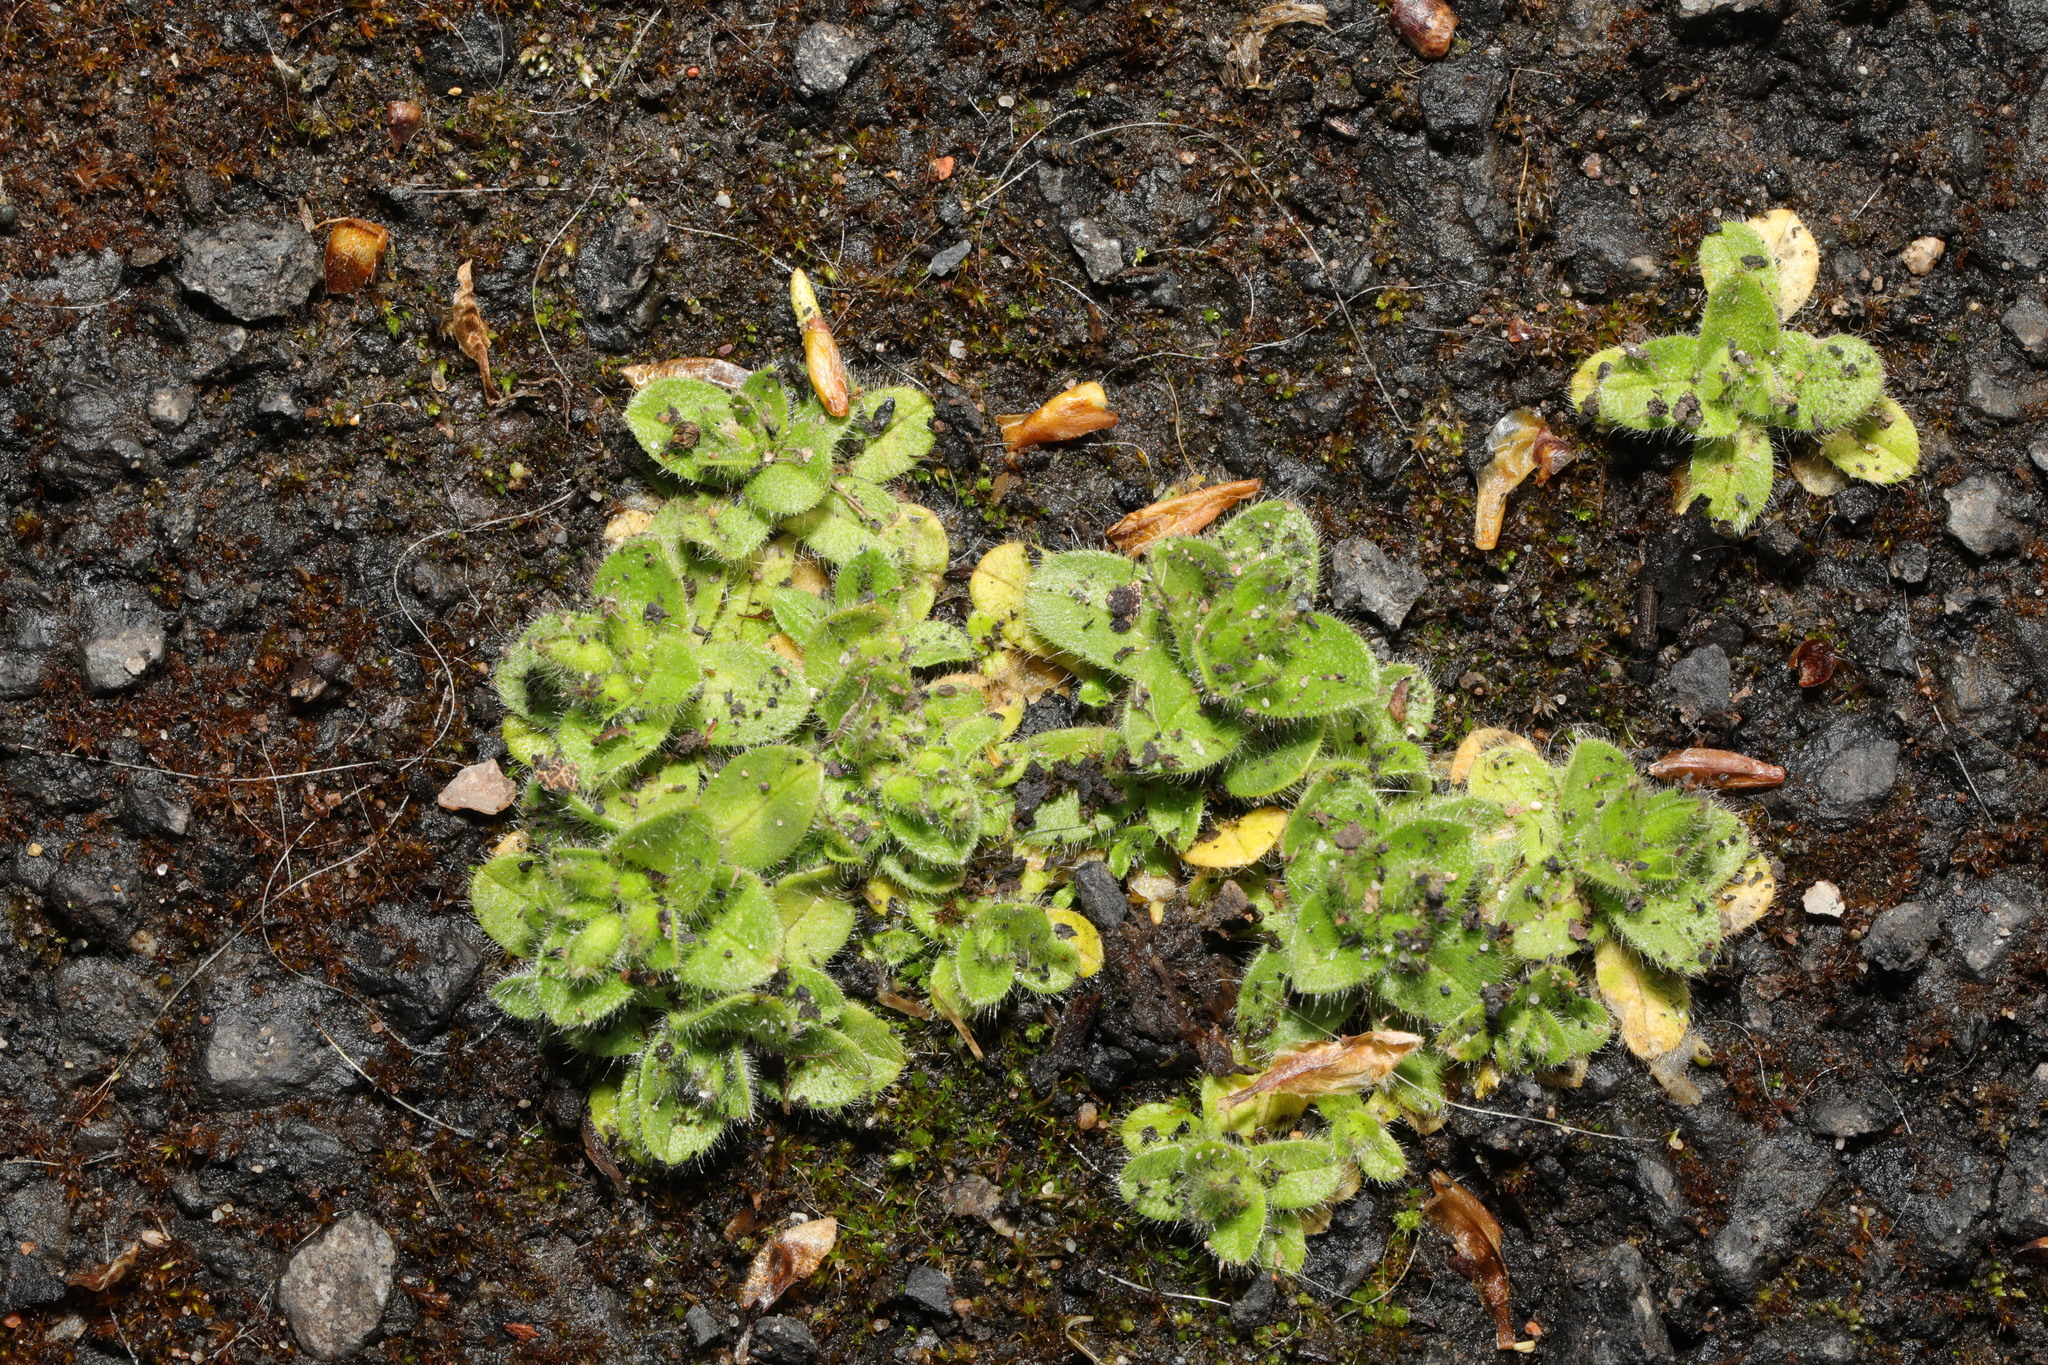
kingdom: Plantae
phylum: Tracheophyta
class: Magnoliopsida
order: Caryophyllales
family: Caryophyllaceae
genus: Cerastium
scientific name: Cerastium glomeratum
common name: Sticky chickweed
